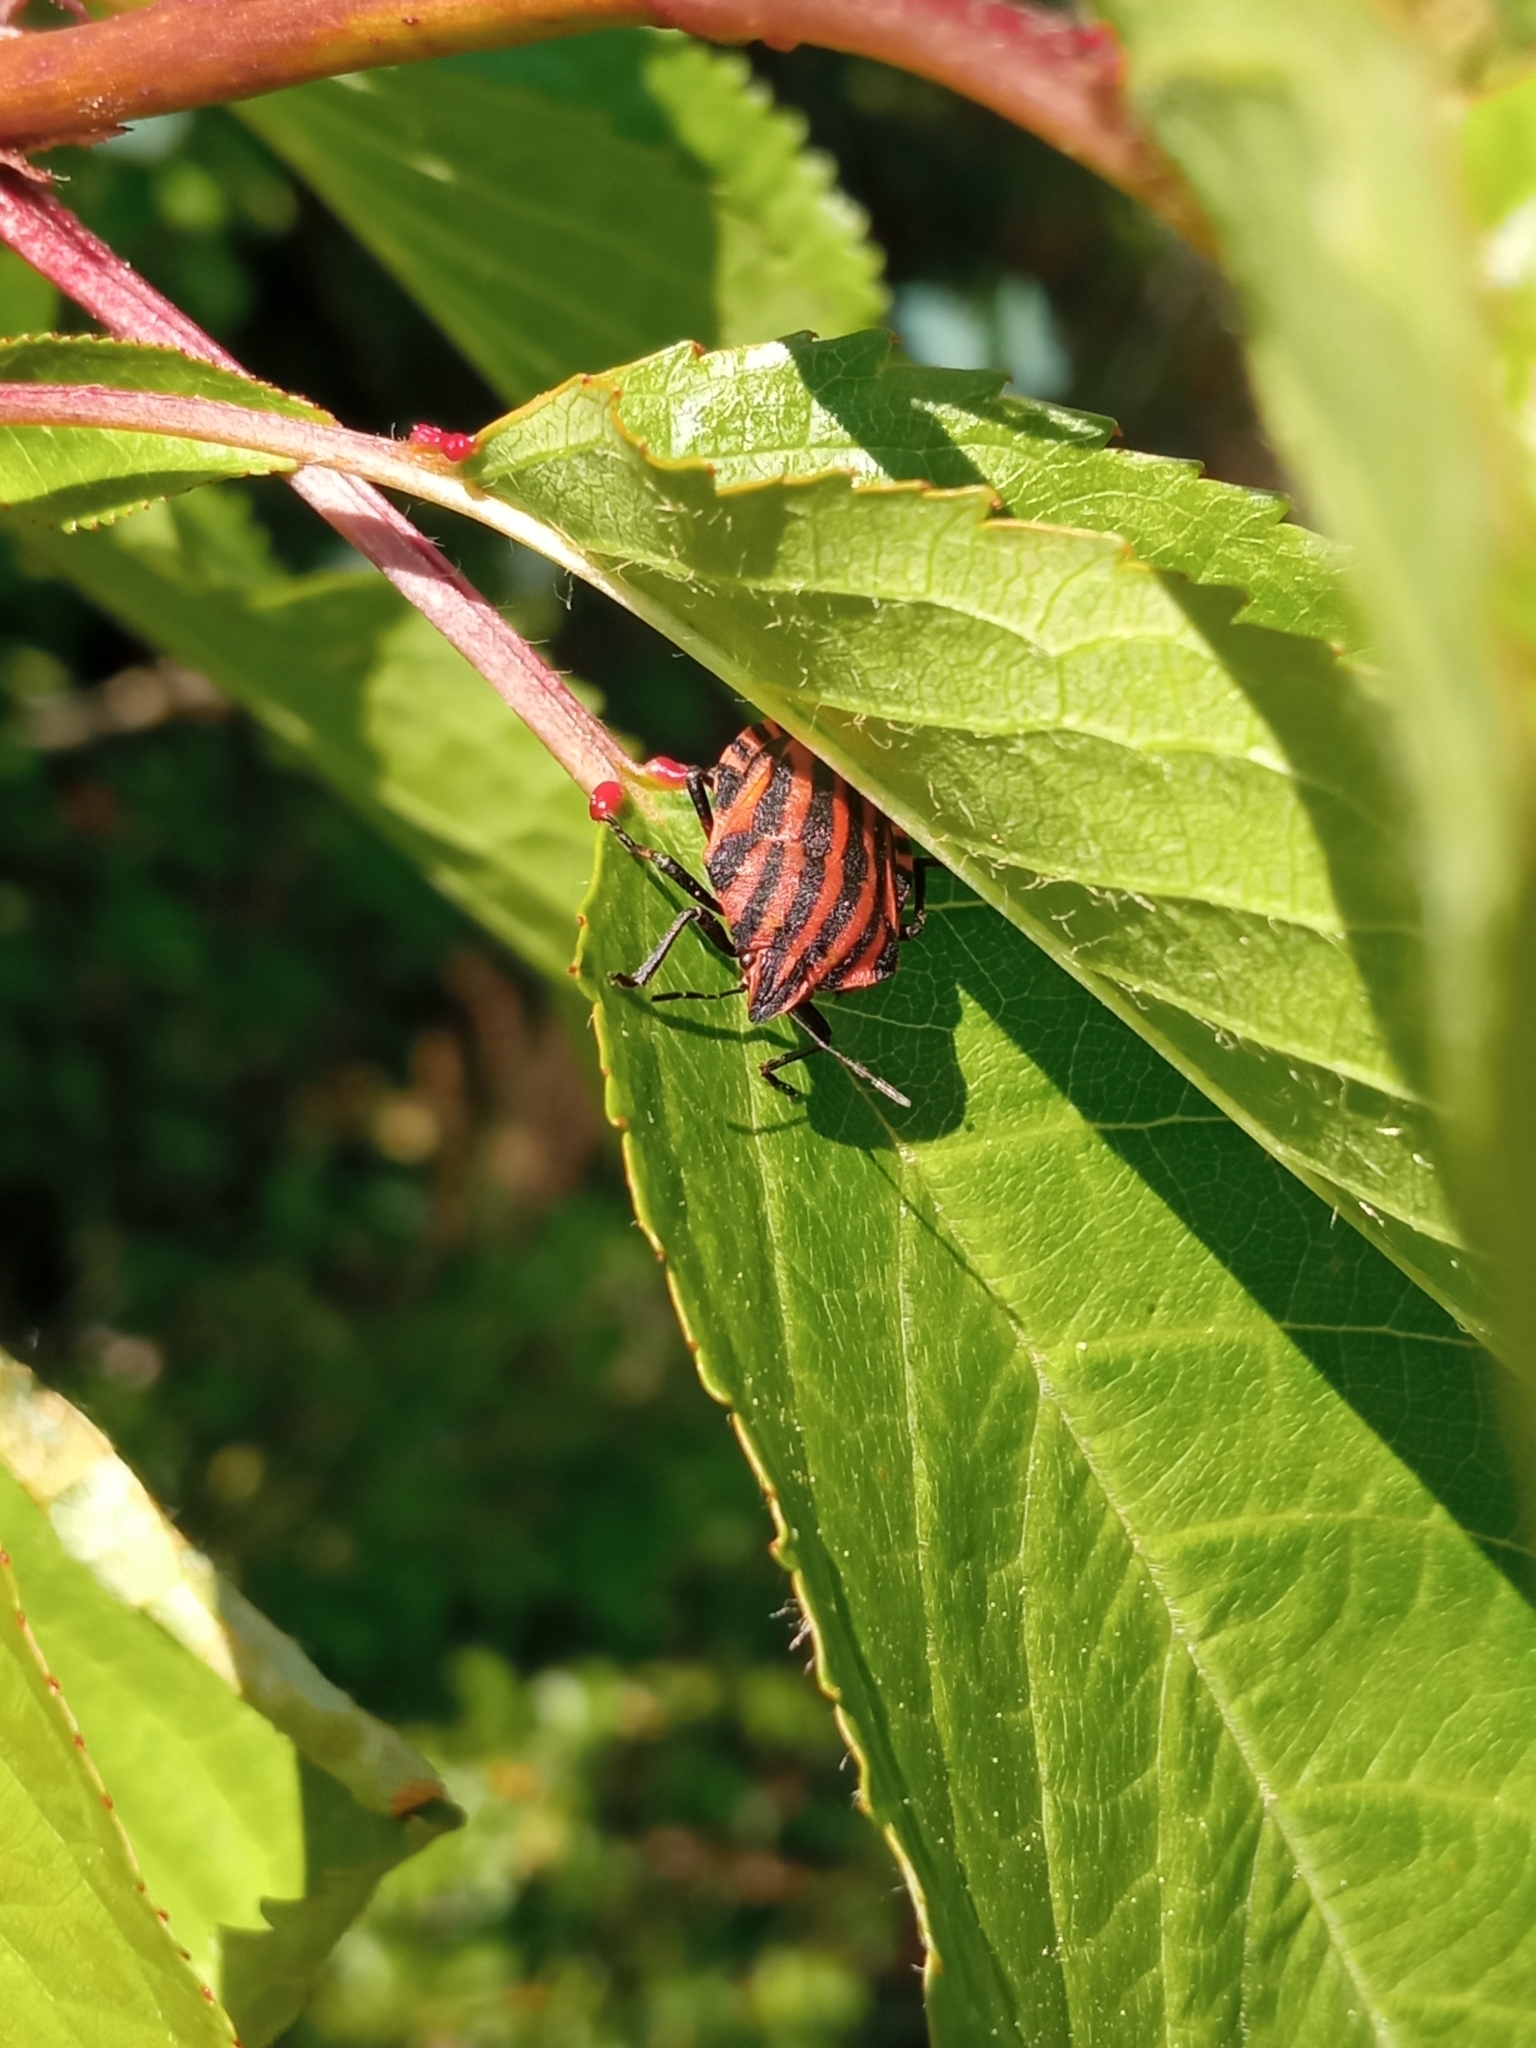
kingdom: Animalia
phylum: Arthropoda
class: Insecta
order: Hemiptera
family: Pentatomidae
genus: Graphosoma
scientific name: Graphosoma italicum
